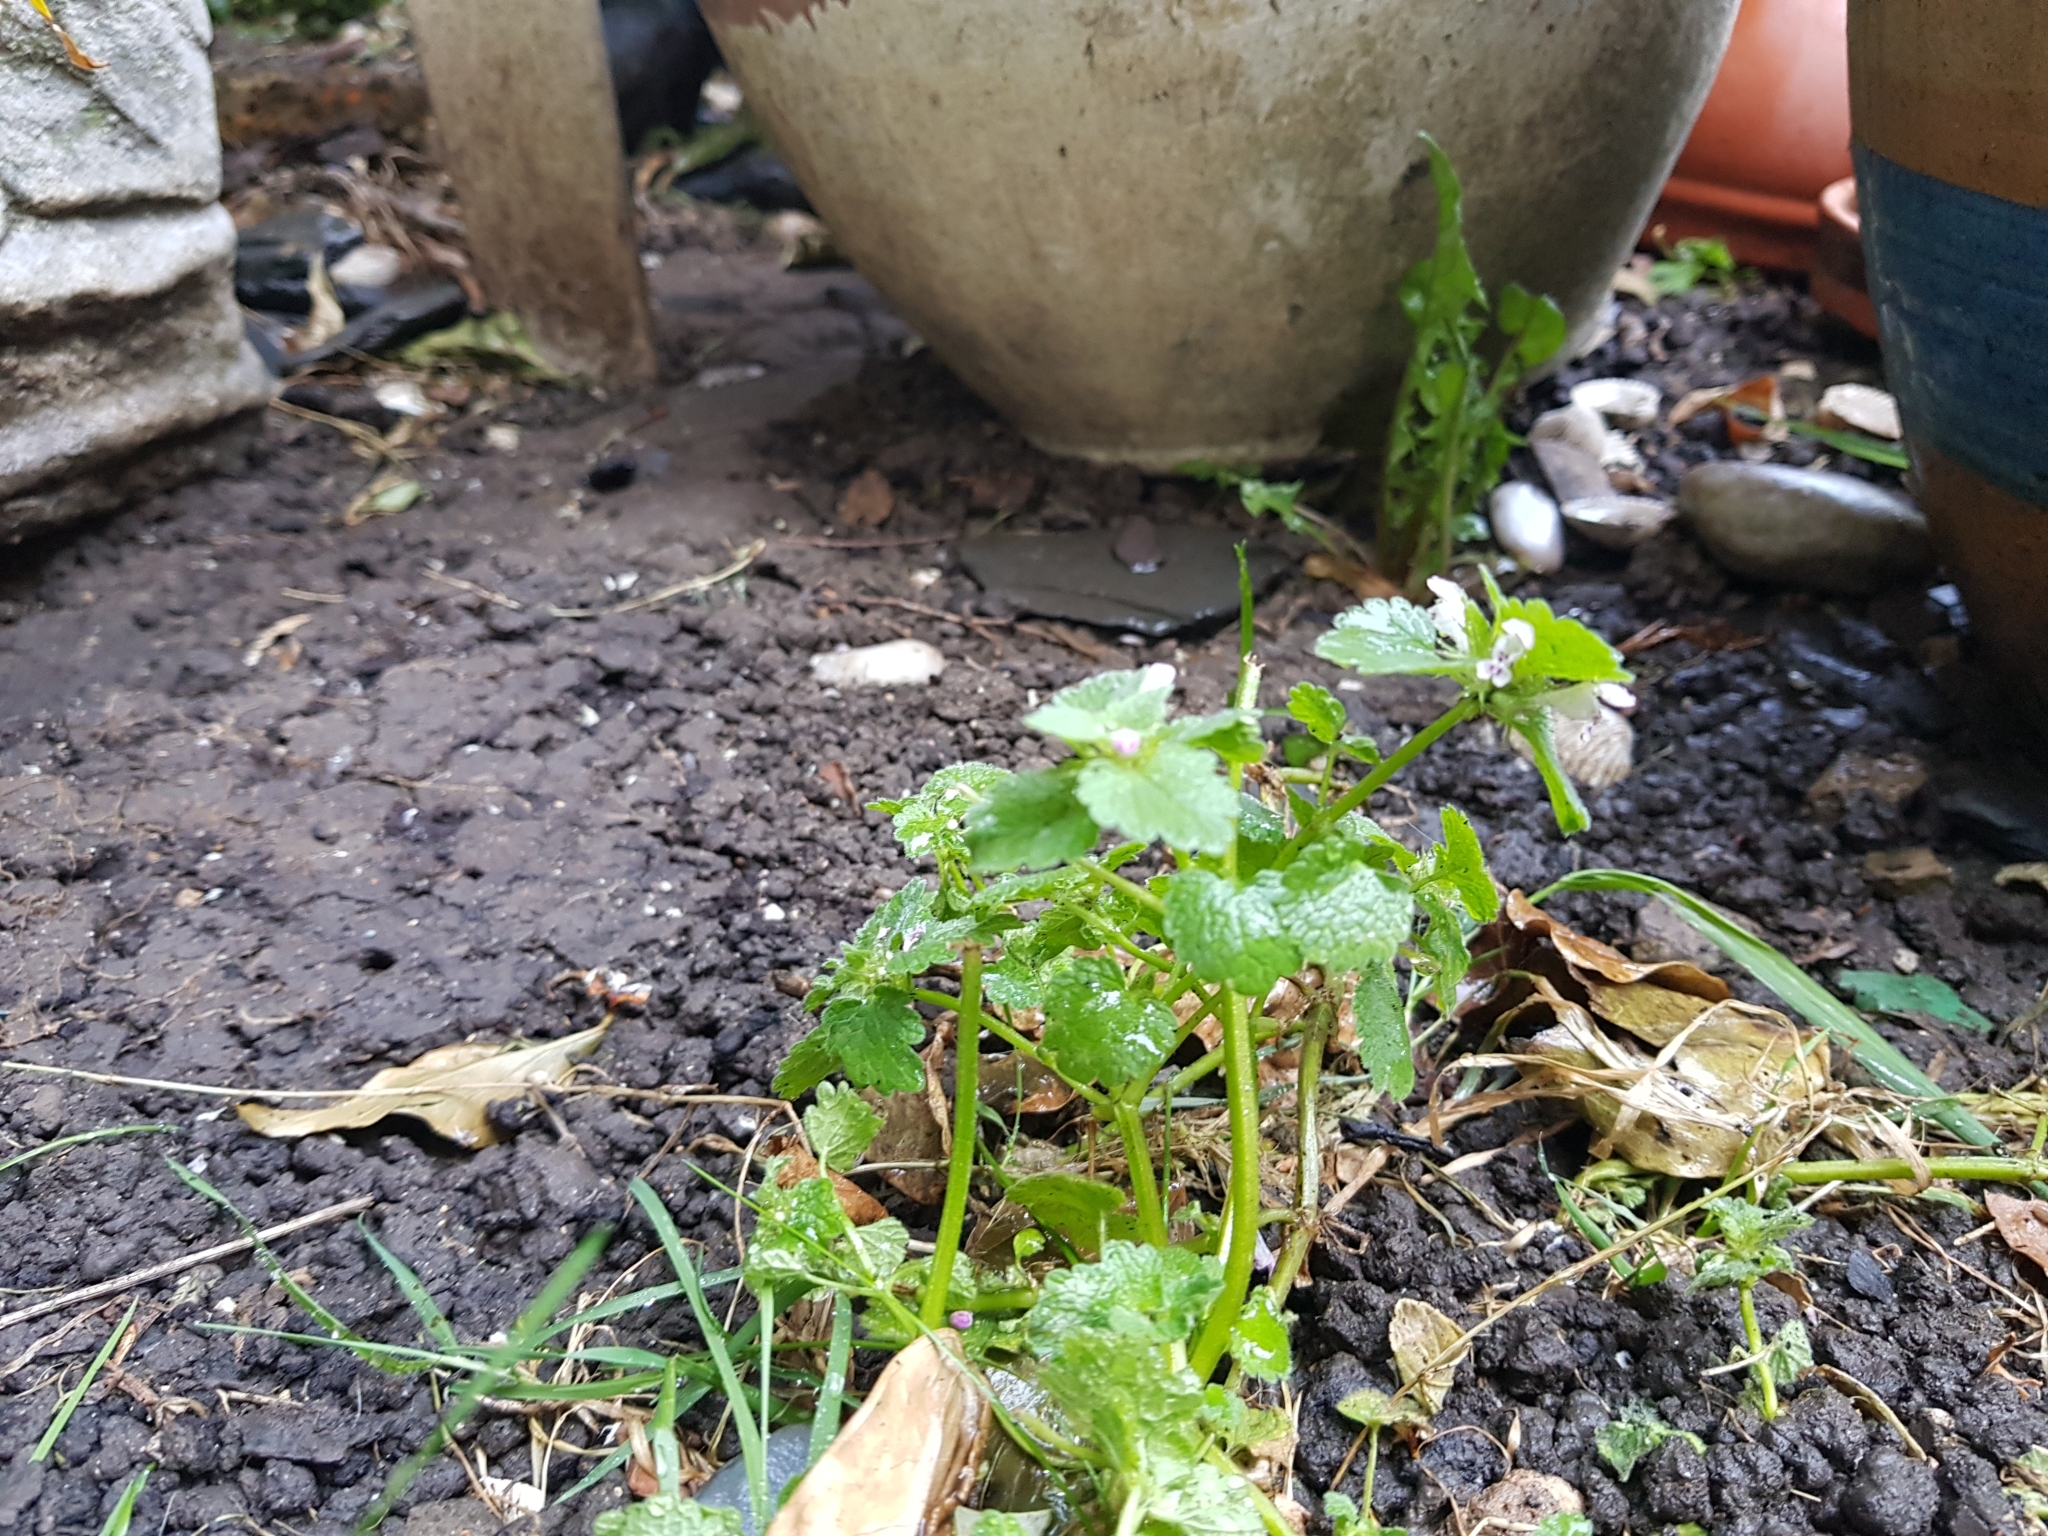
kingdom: Plantae
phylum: Tracheophyta
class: Magnoliopsida
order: Lamiales
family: Lamiaceae
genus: Lamium
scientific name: Lamium purpureum
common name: Red dead-nettle
